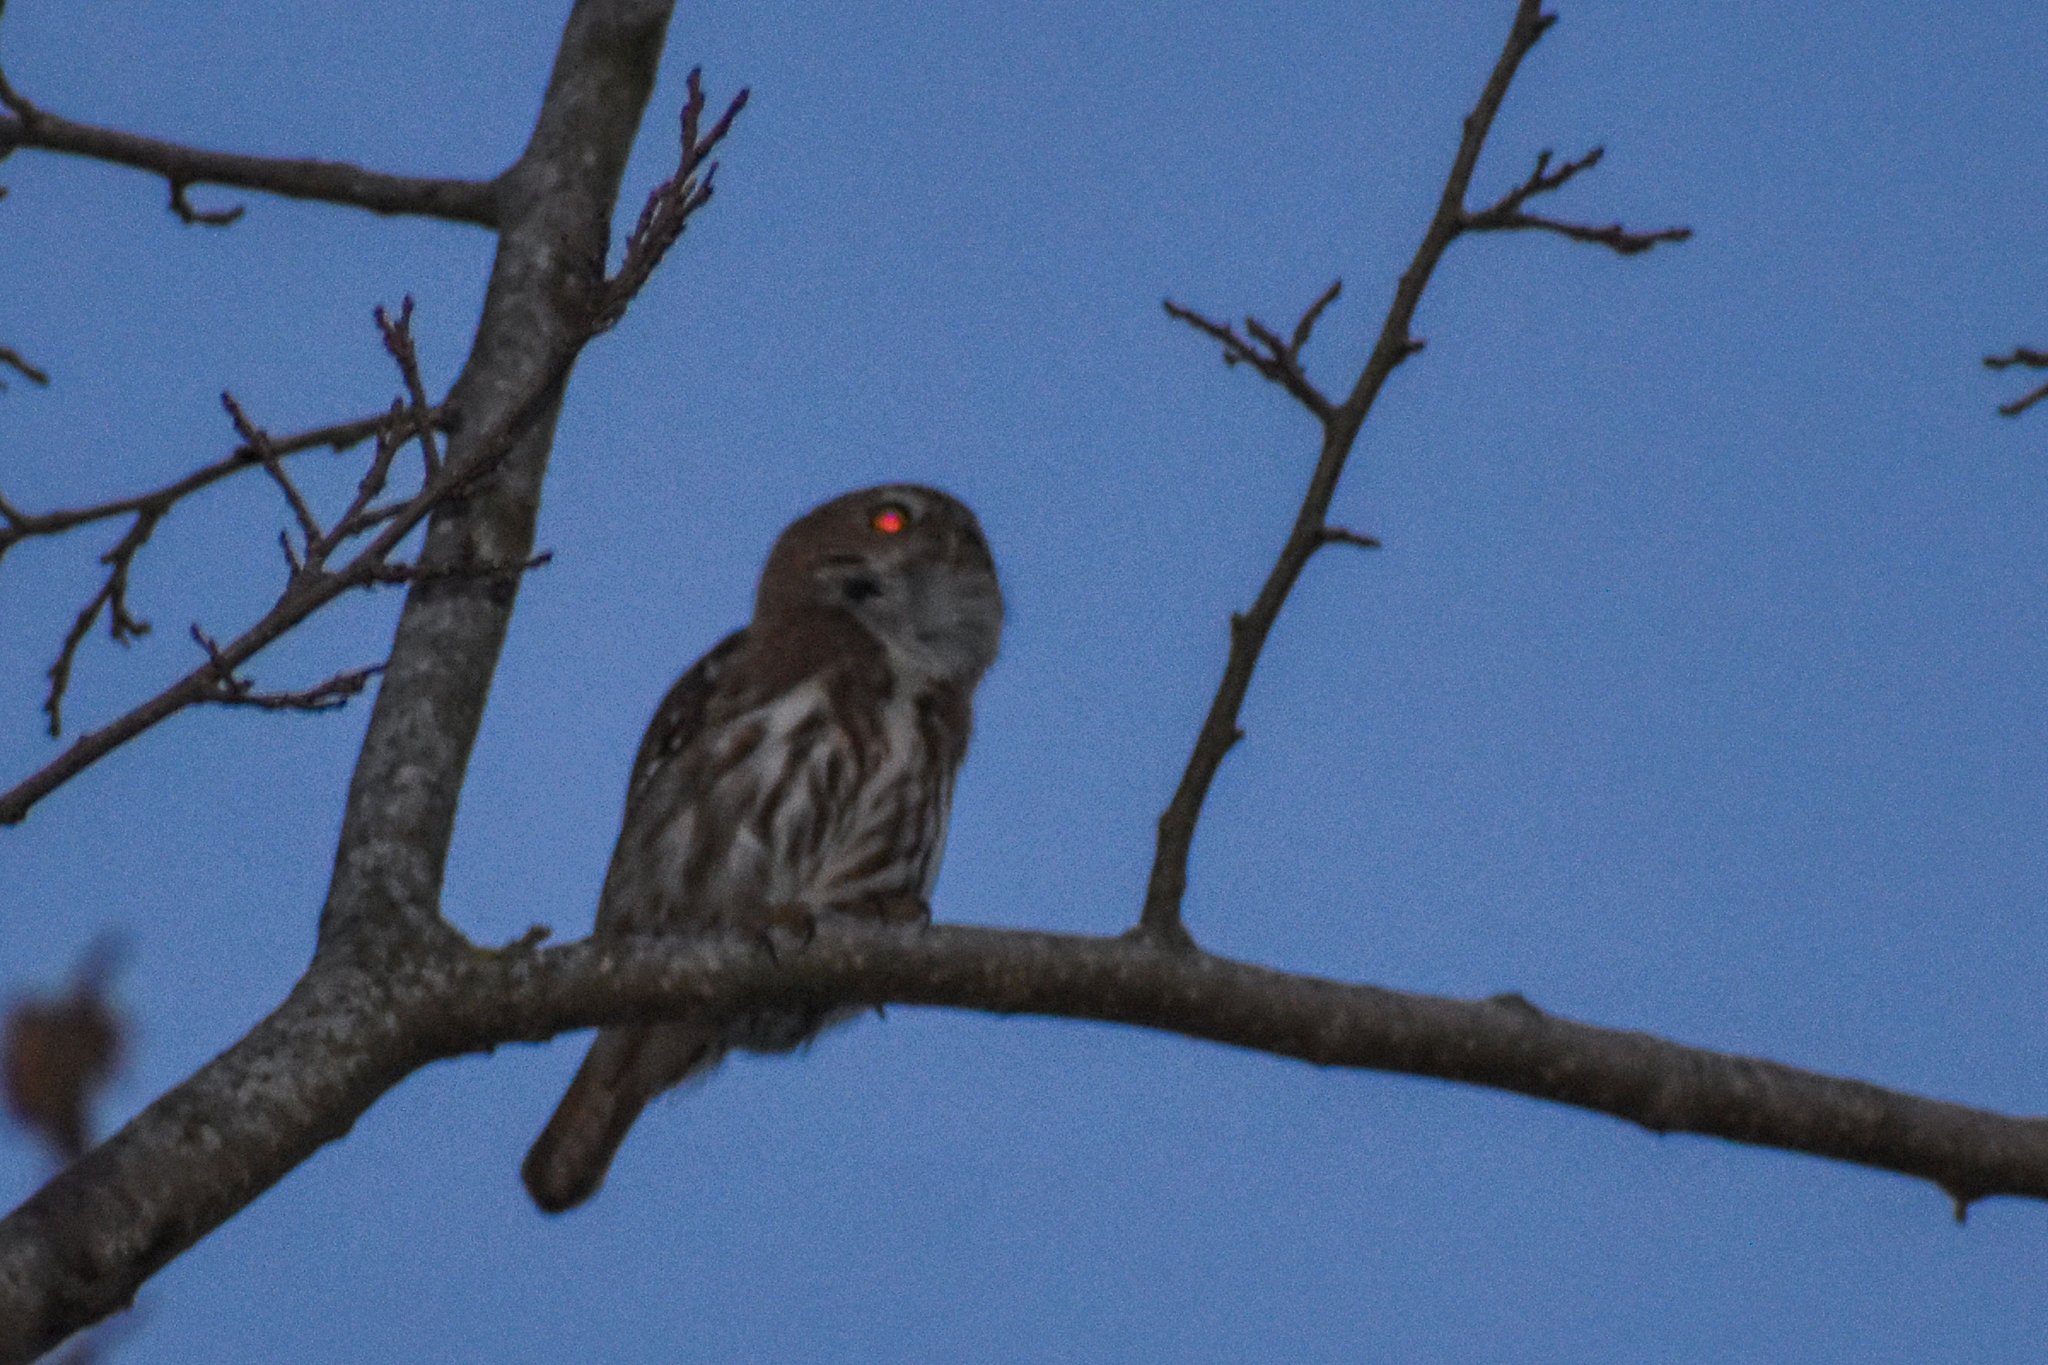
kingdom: Animalia
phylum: Chordata
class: Aves
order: Strigiformes
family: Strigidae
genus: Glaucidium
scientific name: Glaucidium brasilianum
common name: Ferruginous pygmy-owl
